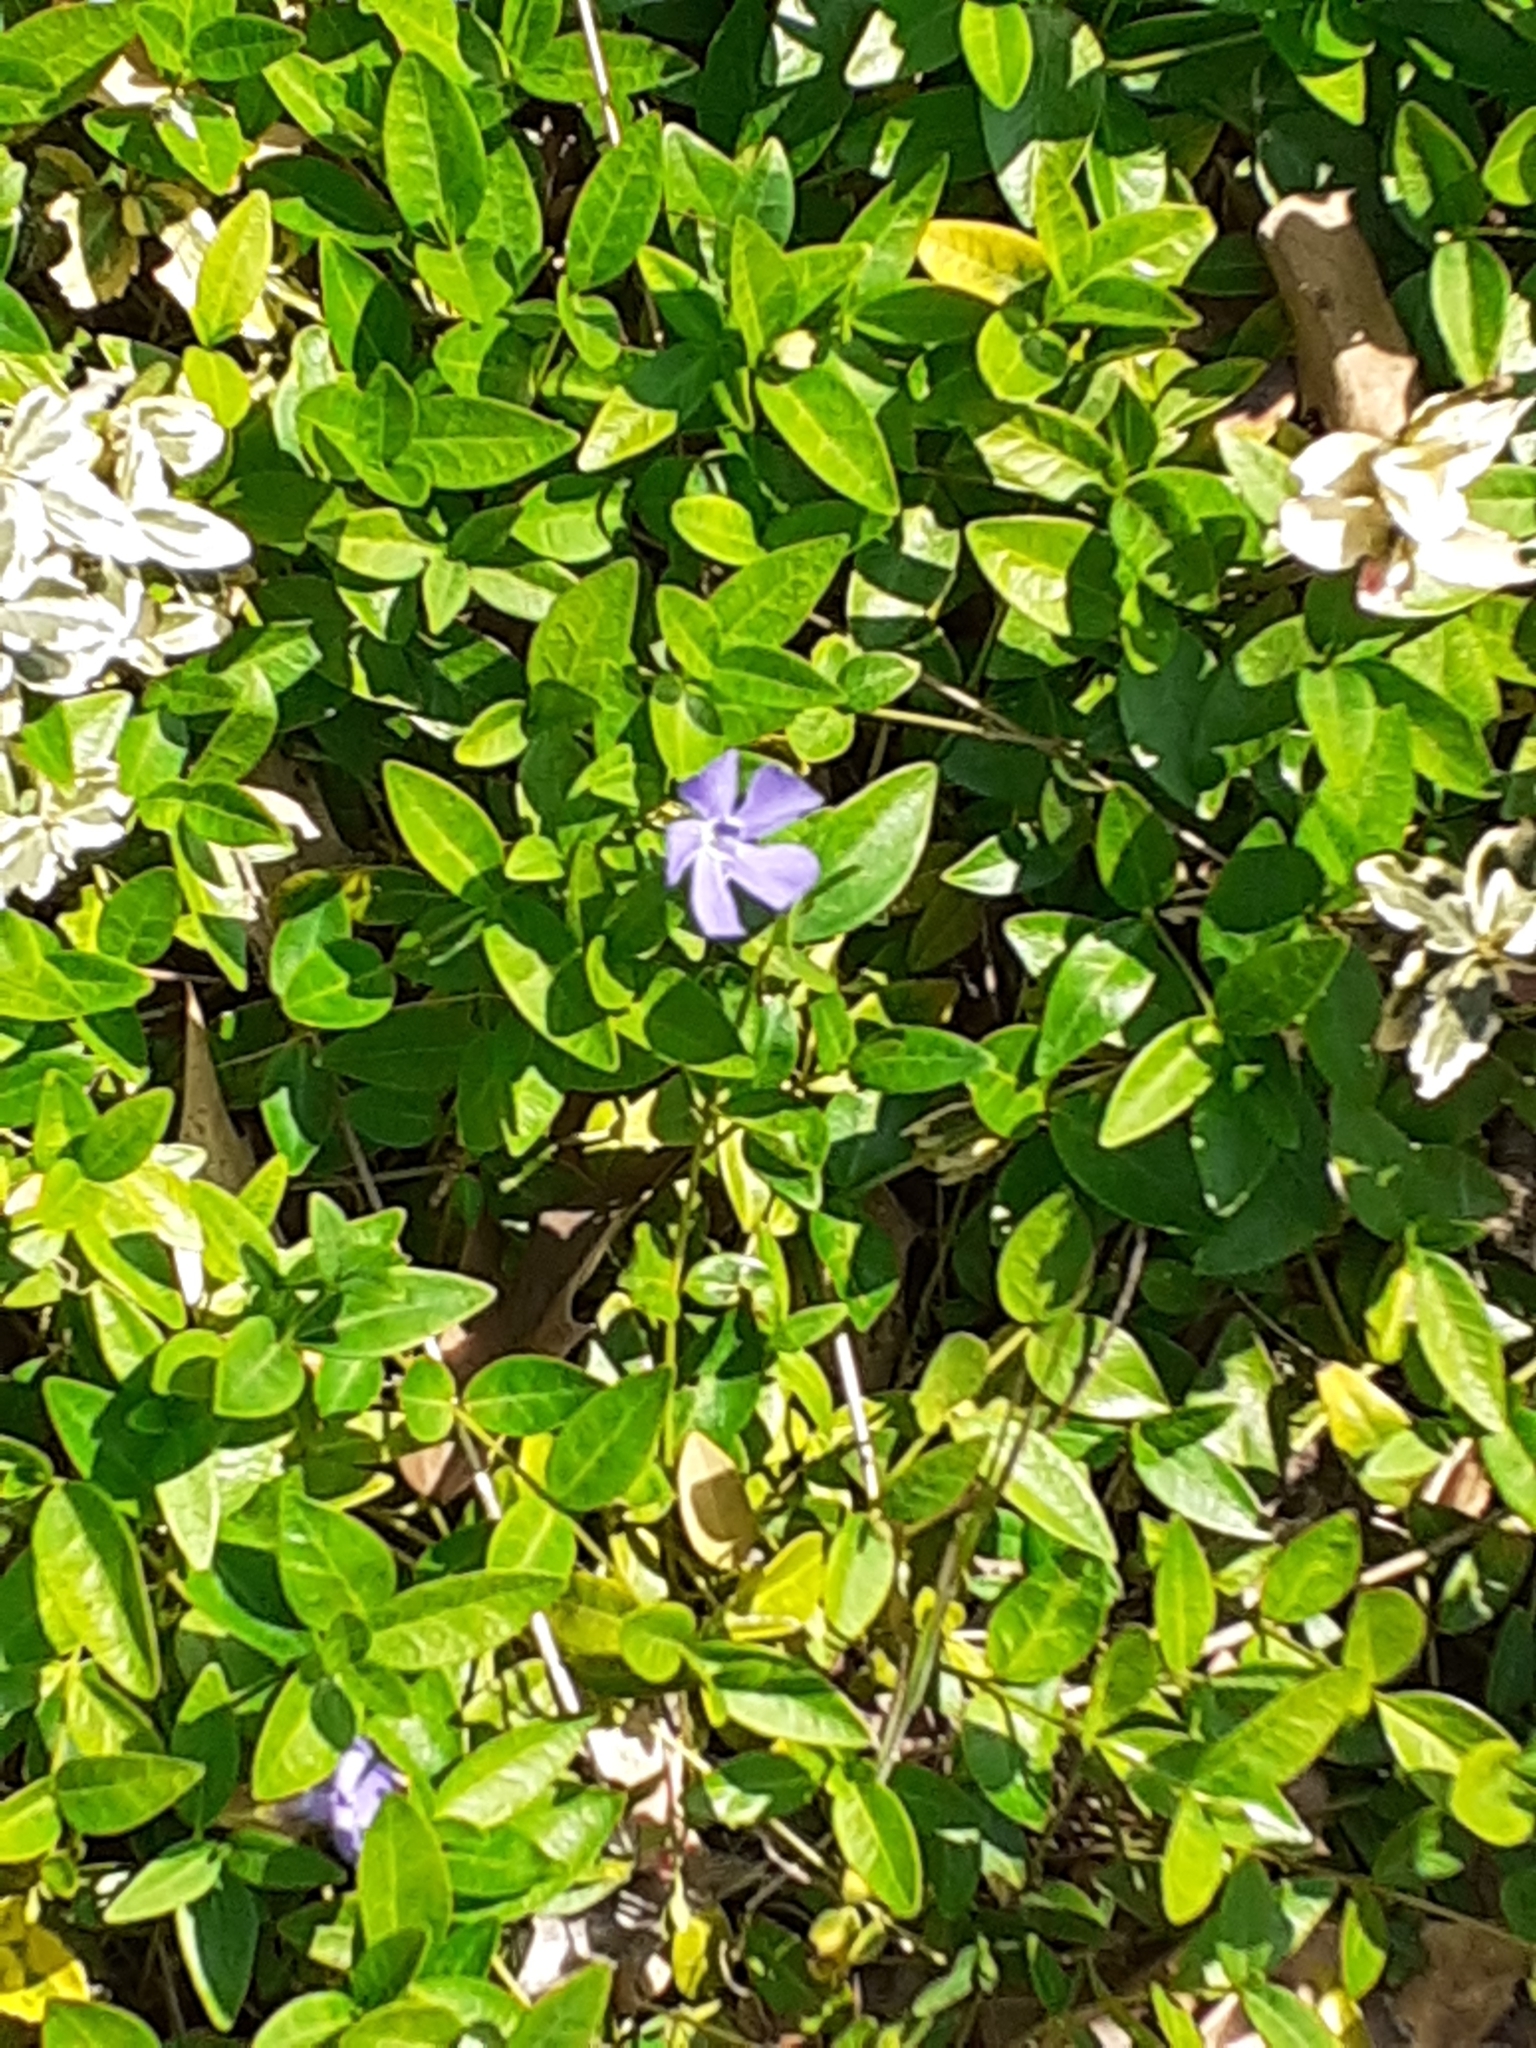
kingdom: Plantae
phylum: Tracheophyta
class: Magnoliopsida
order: Gentianales
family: Apocynaceae
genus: Vinca
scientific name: Vinca minor
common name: Lesser periwinkle
